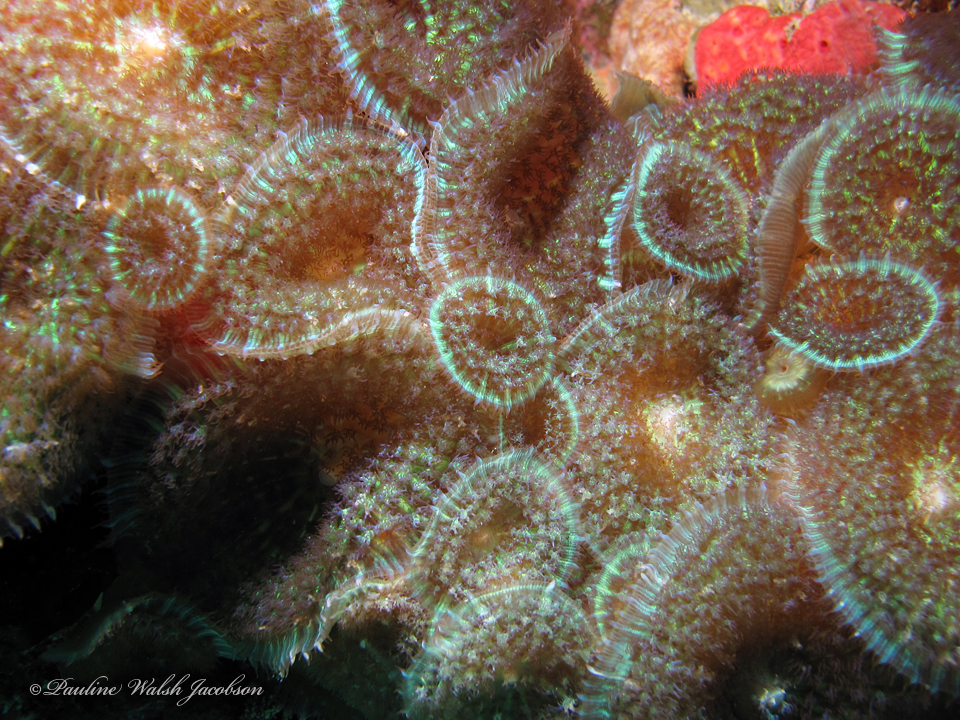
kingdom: Animalia
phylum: Cnidaria
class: Anthozoa
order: Corallimorpharia
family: Discosomidae
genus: Rhodactis
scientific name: Rhodactis osculifera
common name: Warty corallimorph
